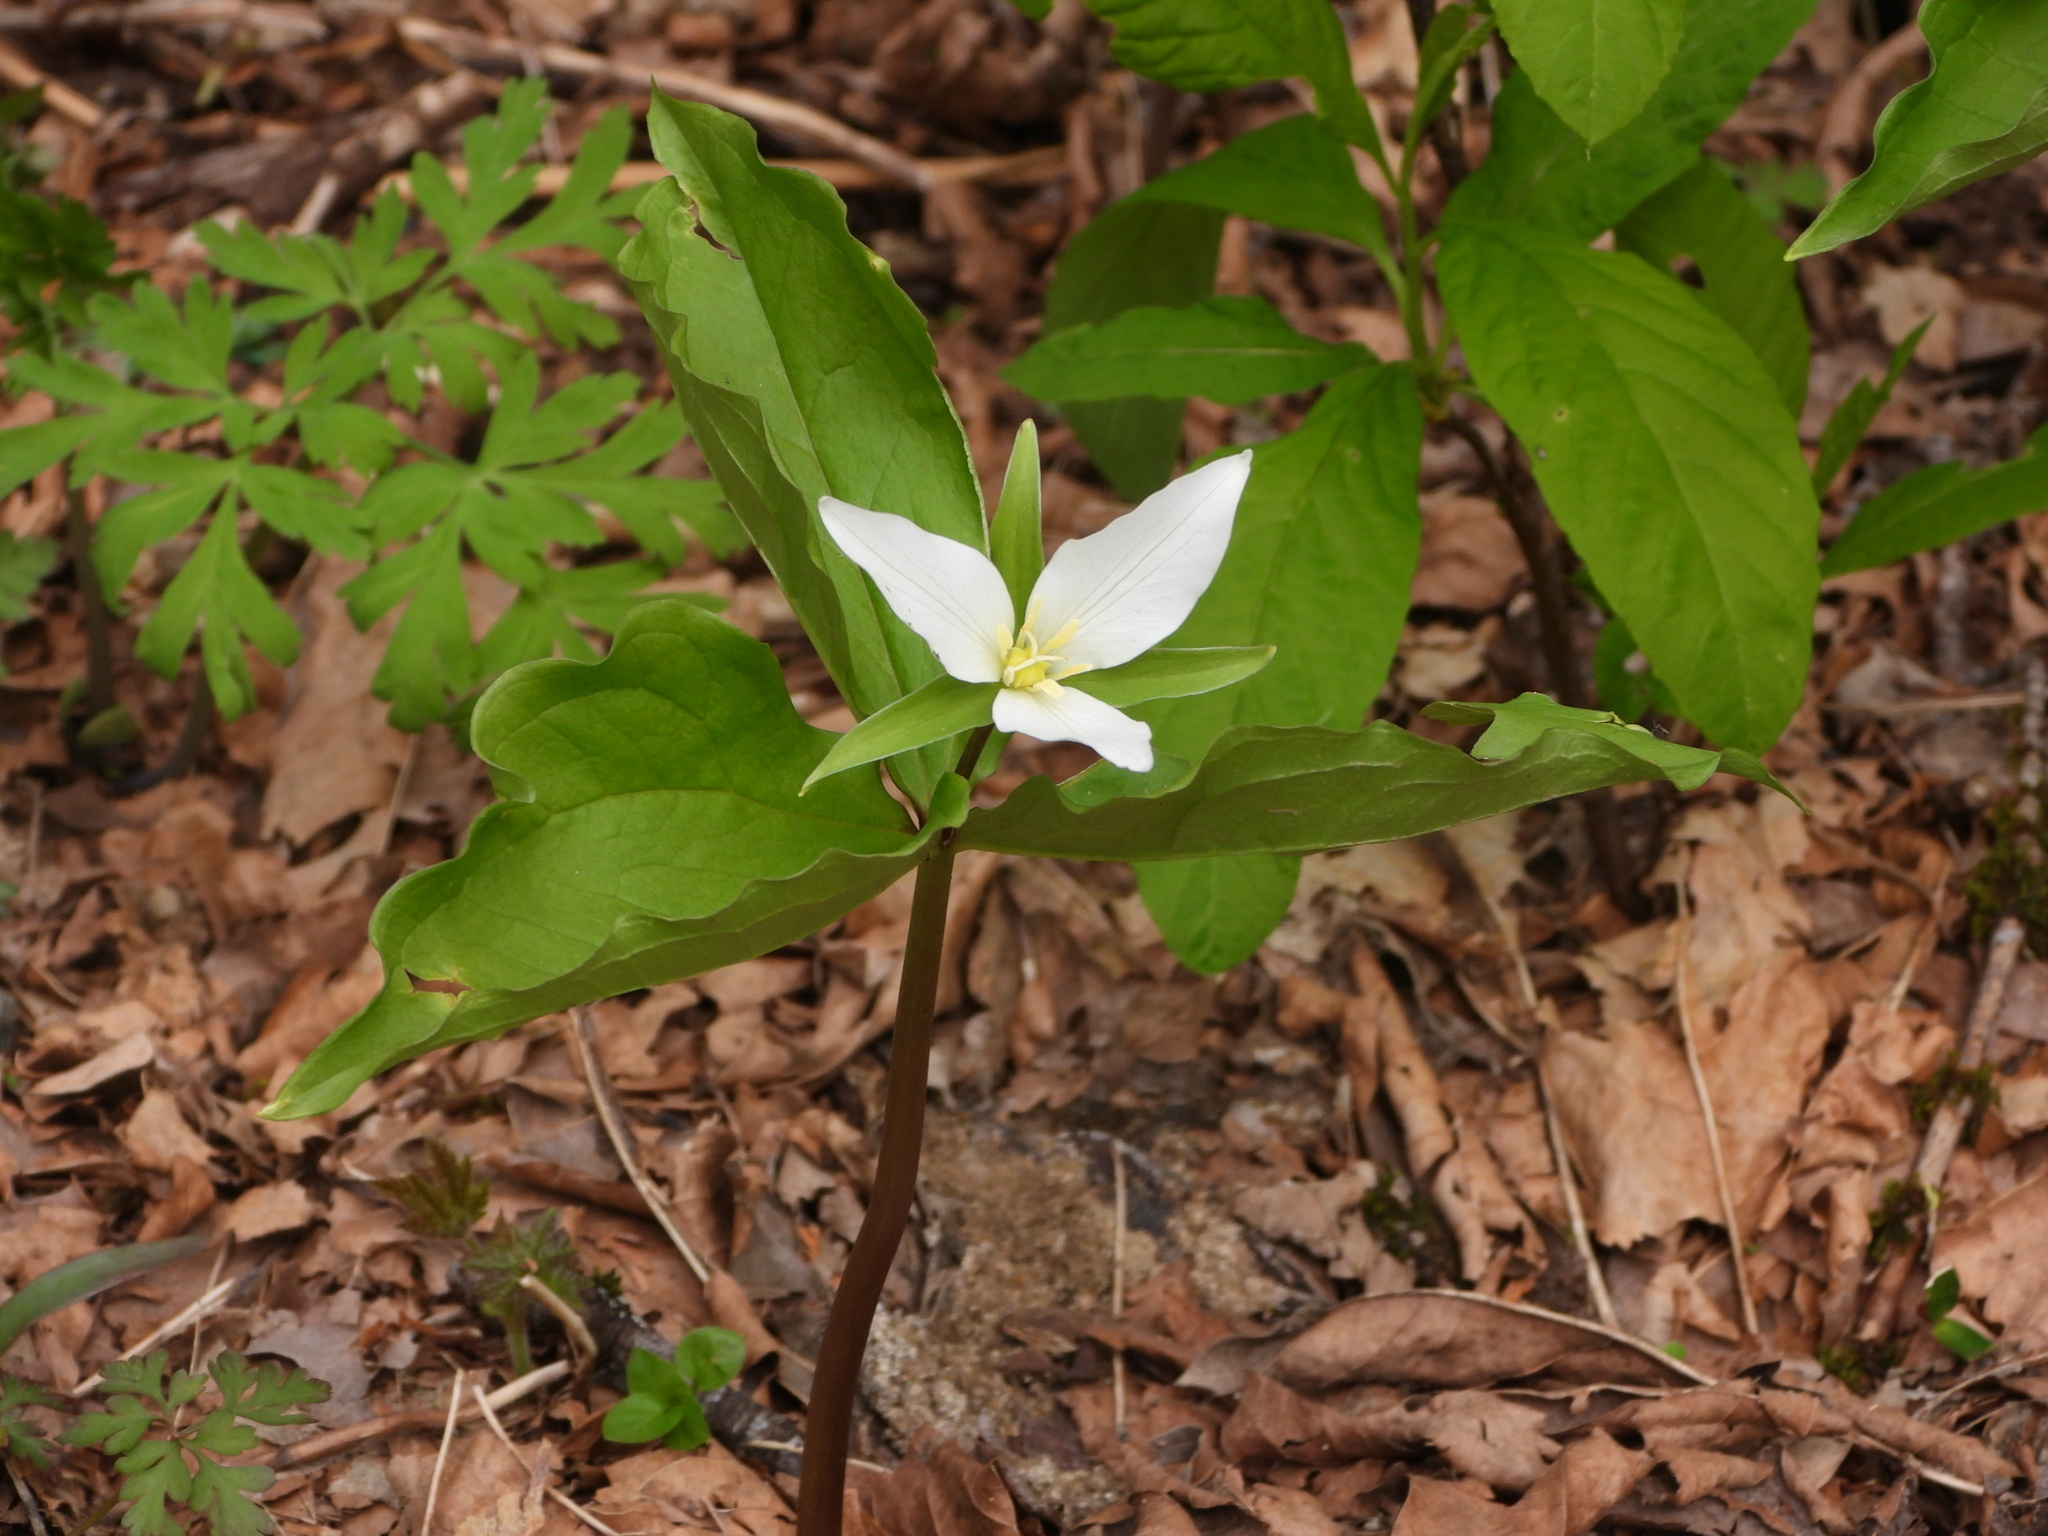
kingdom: Plantae
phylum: Tracheophyta
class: Liliopsida
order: Liliales
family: Melanthiaceae
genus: Trillium
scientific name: Trillium ovatum
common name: Pacific trillium
